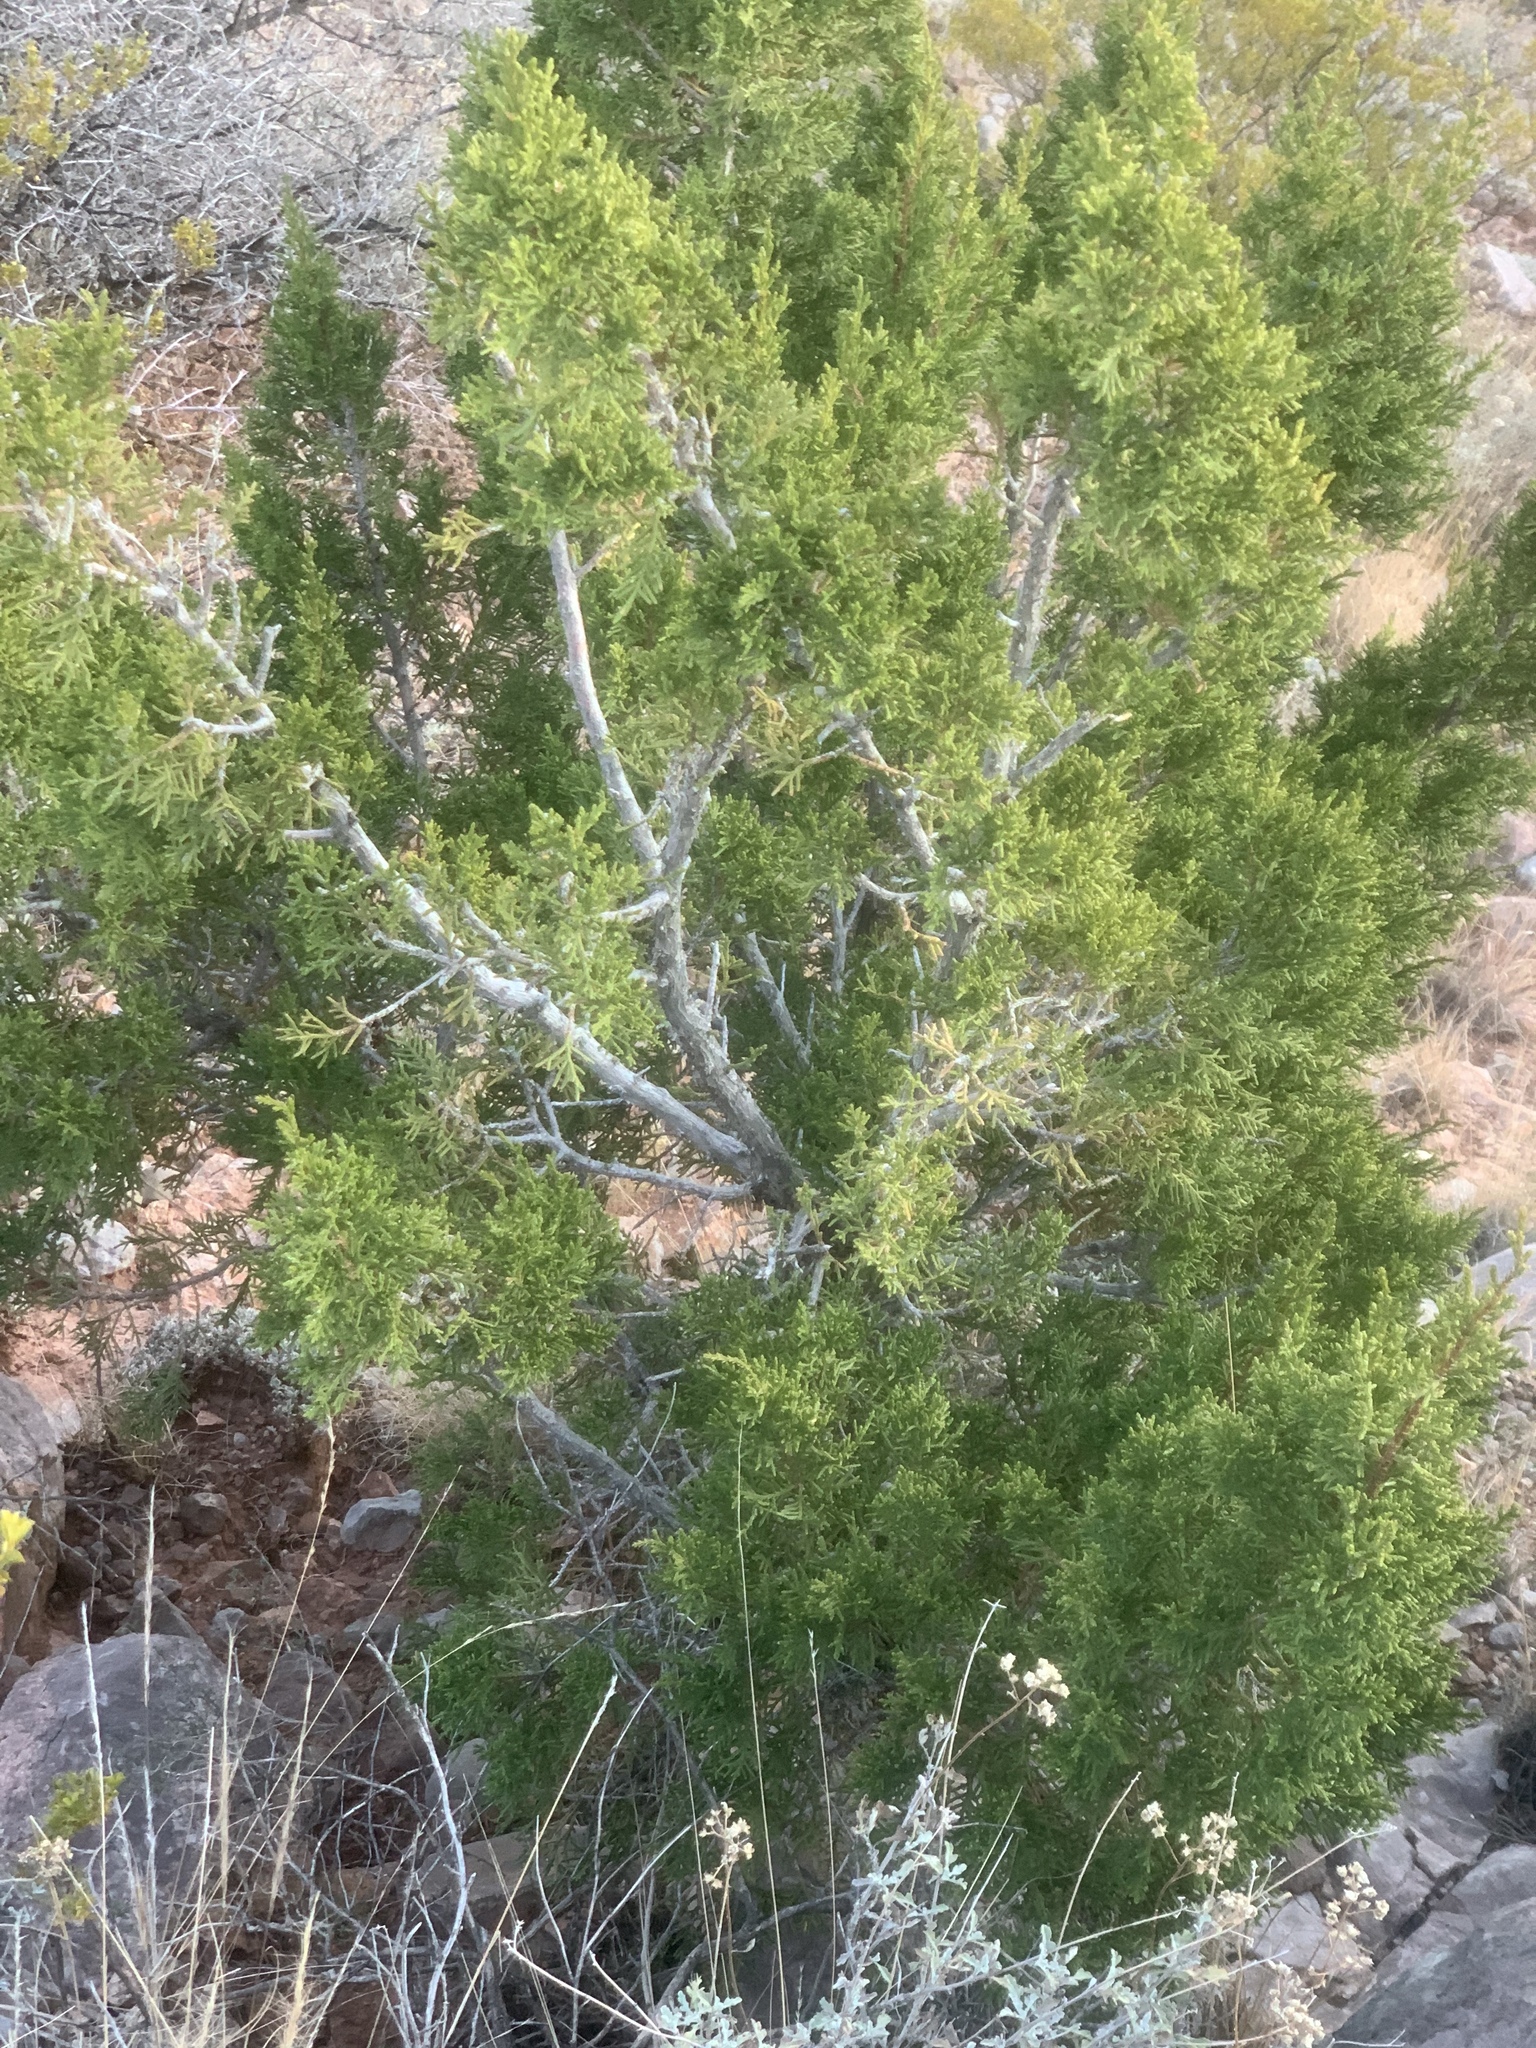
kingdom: Plantae
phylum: Tracheophyta
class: Pinopsida
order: Pinales
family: Cupressaceae
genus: Juniperus
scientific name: Juniperus monosperma
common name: One-seed juniper
